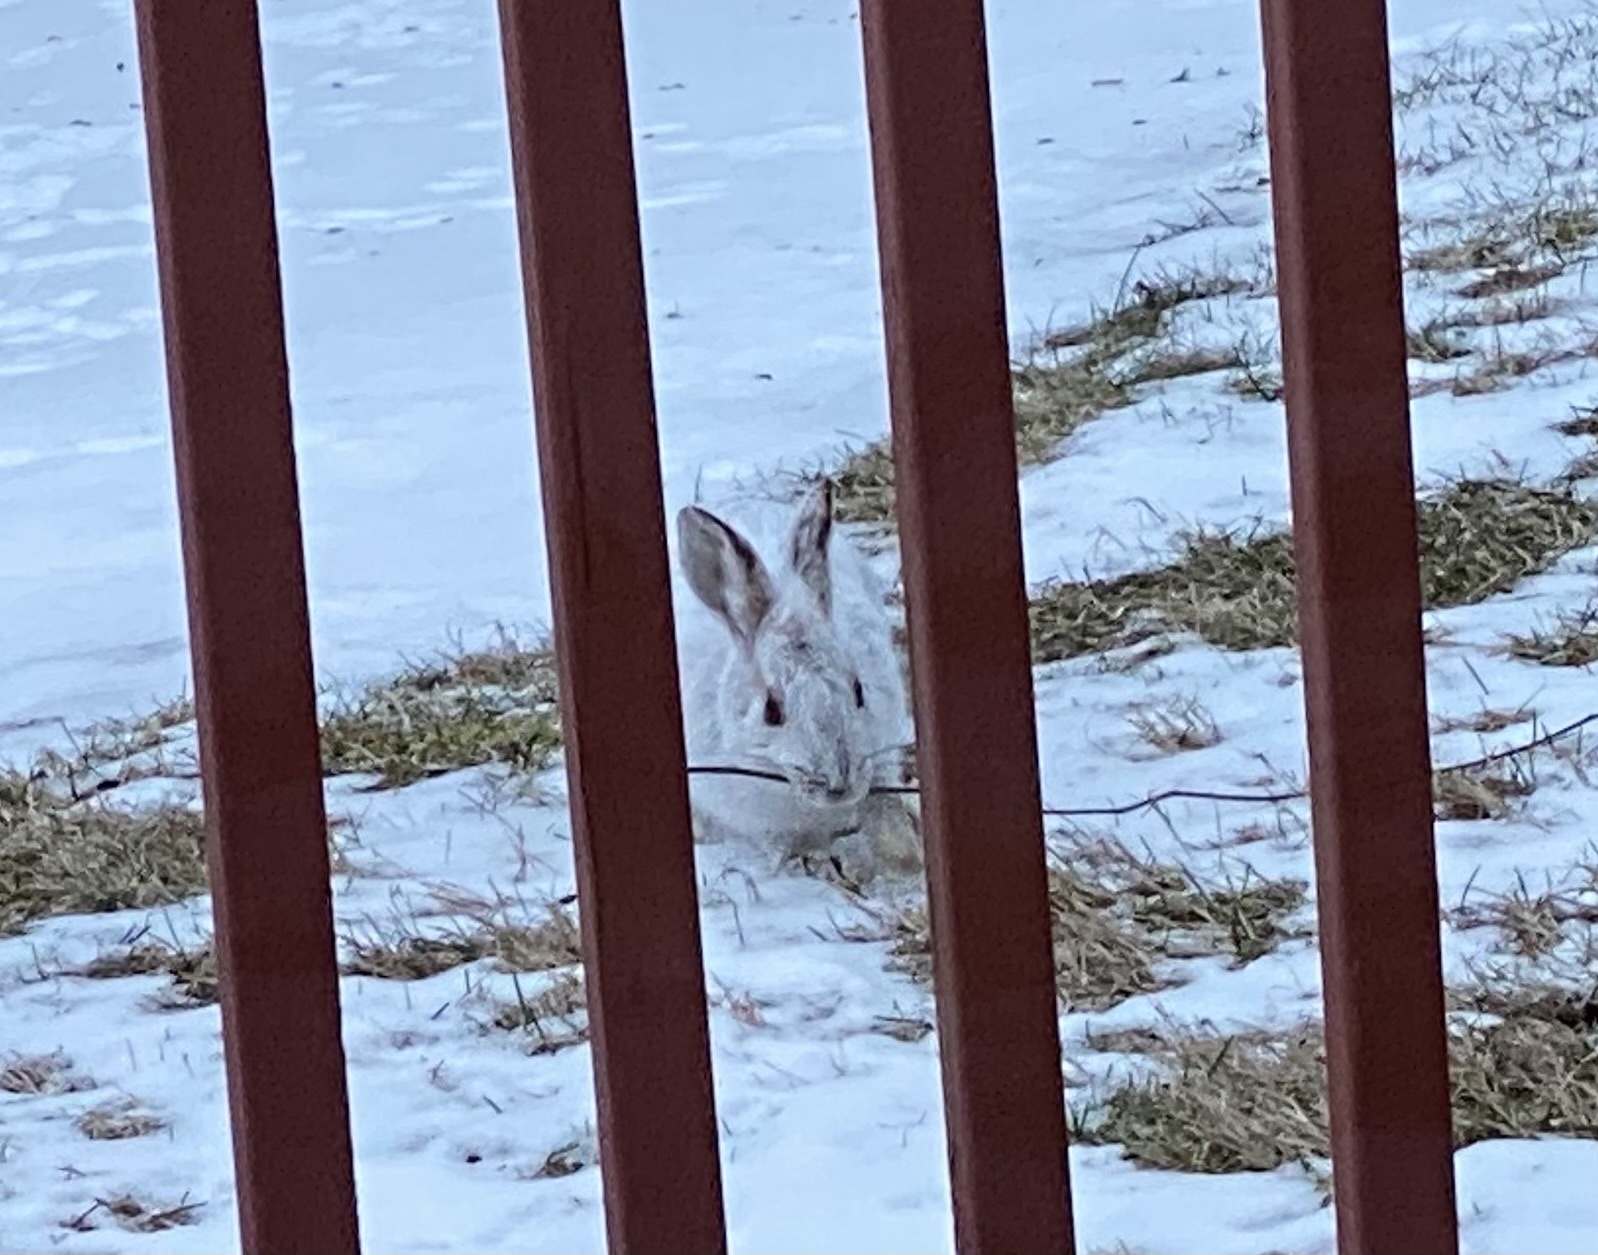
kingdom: Animalia
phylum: Chordata
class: Mammalia
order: Lagomorpha
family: Leporidae
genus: Lepus
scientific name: Lepus americanus
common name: Snowshoe hare
